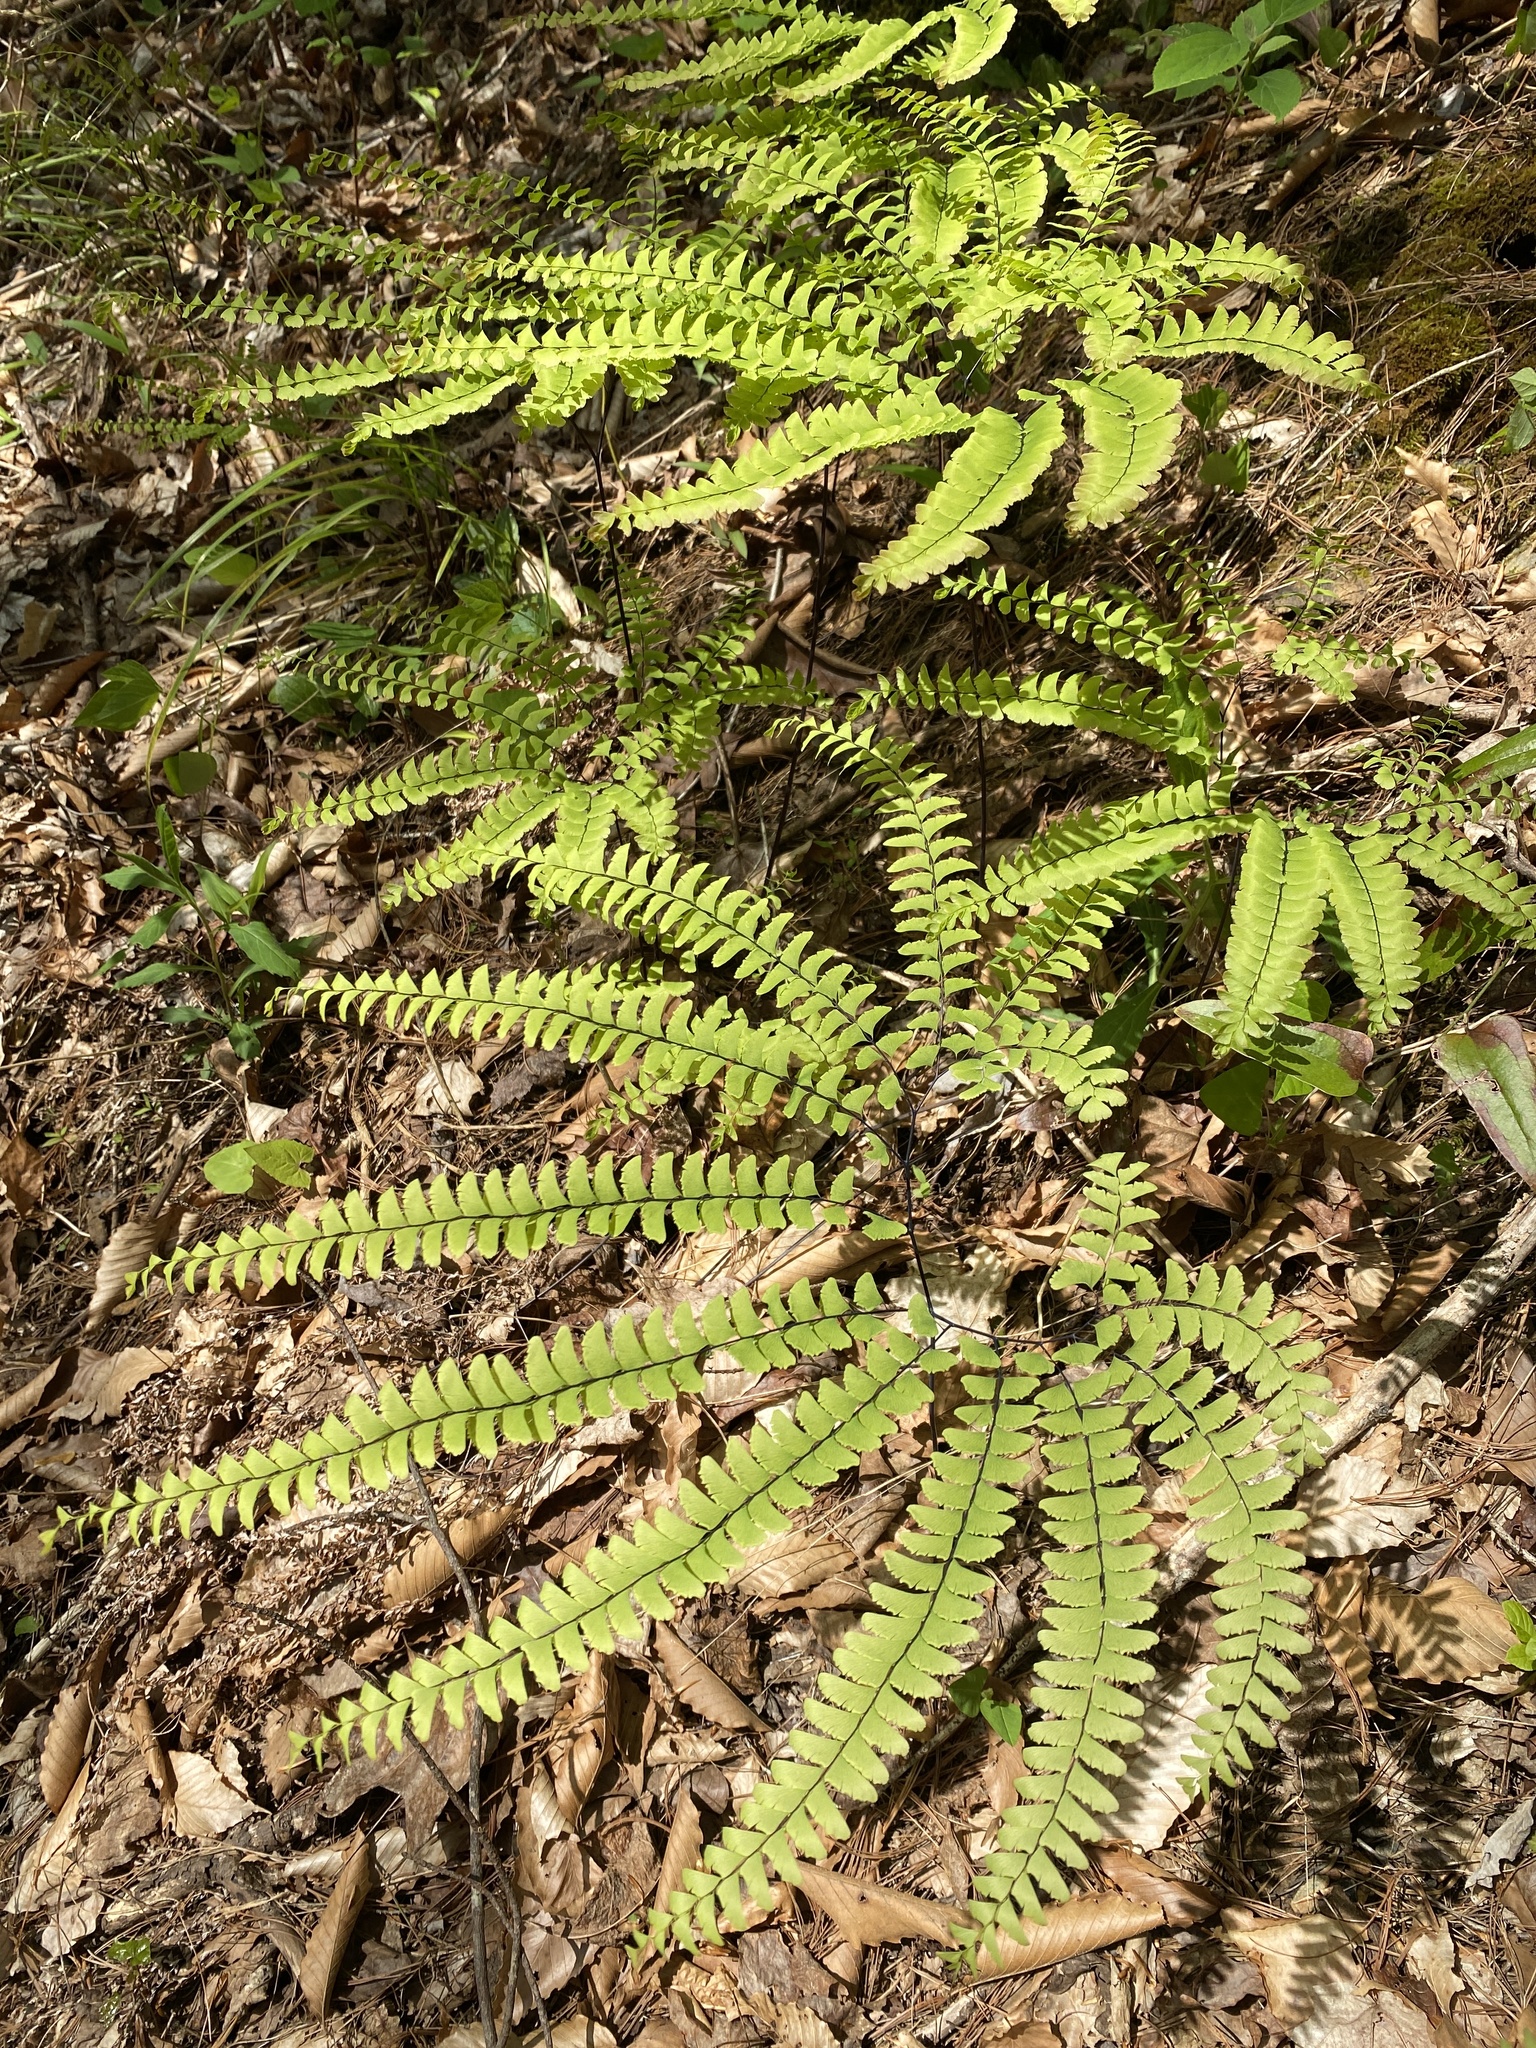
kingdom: Plantae
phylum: Tracheophyta
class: Polypodiopsida
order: Polypodiales
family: Pteridaceae
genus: Adiantum
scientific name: Adiantum pedatum
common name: Five-finger fern
